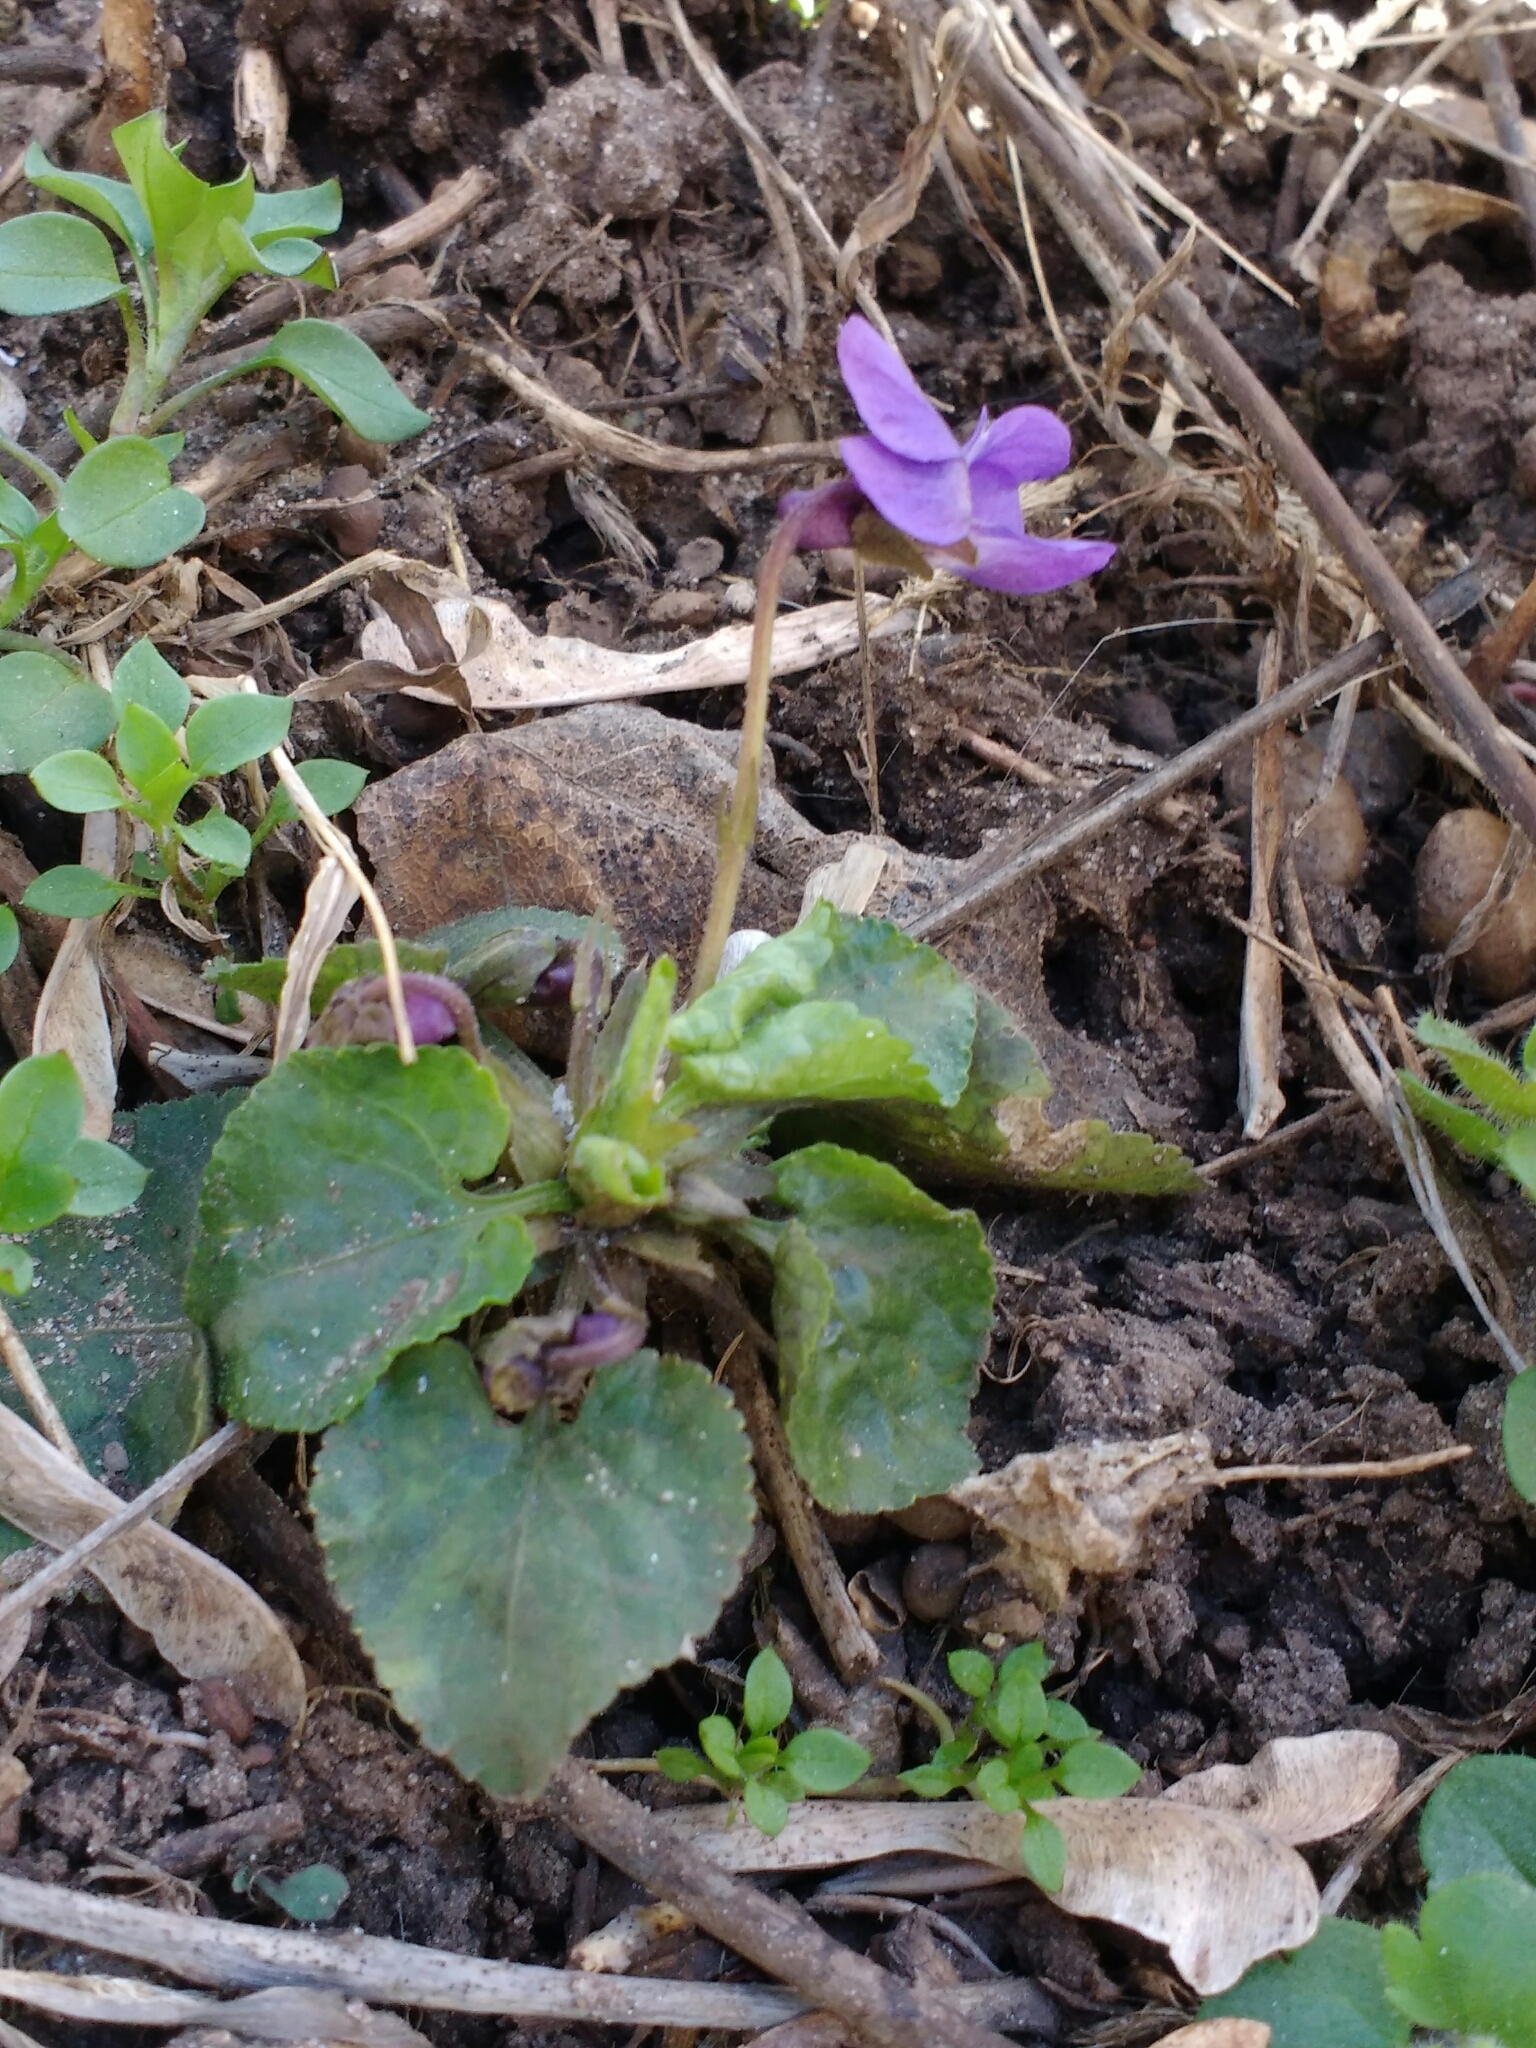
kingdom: Plantae
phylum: Tracheophyta
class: Magnoliopsida
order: Malpighiales
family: Violaceae
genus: Viola
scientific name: Viola odorata
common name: Sweet violet
